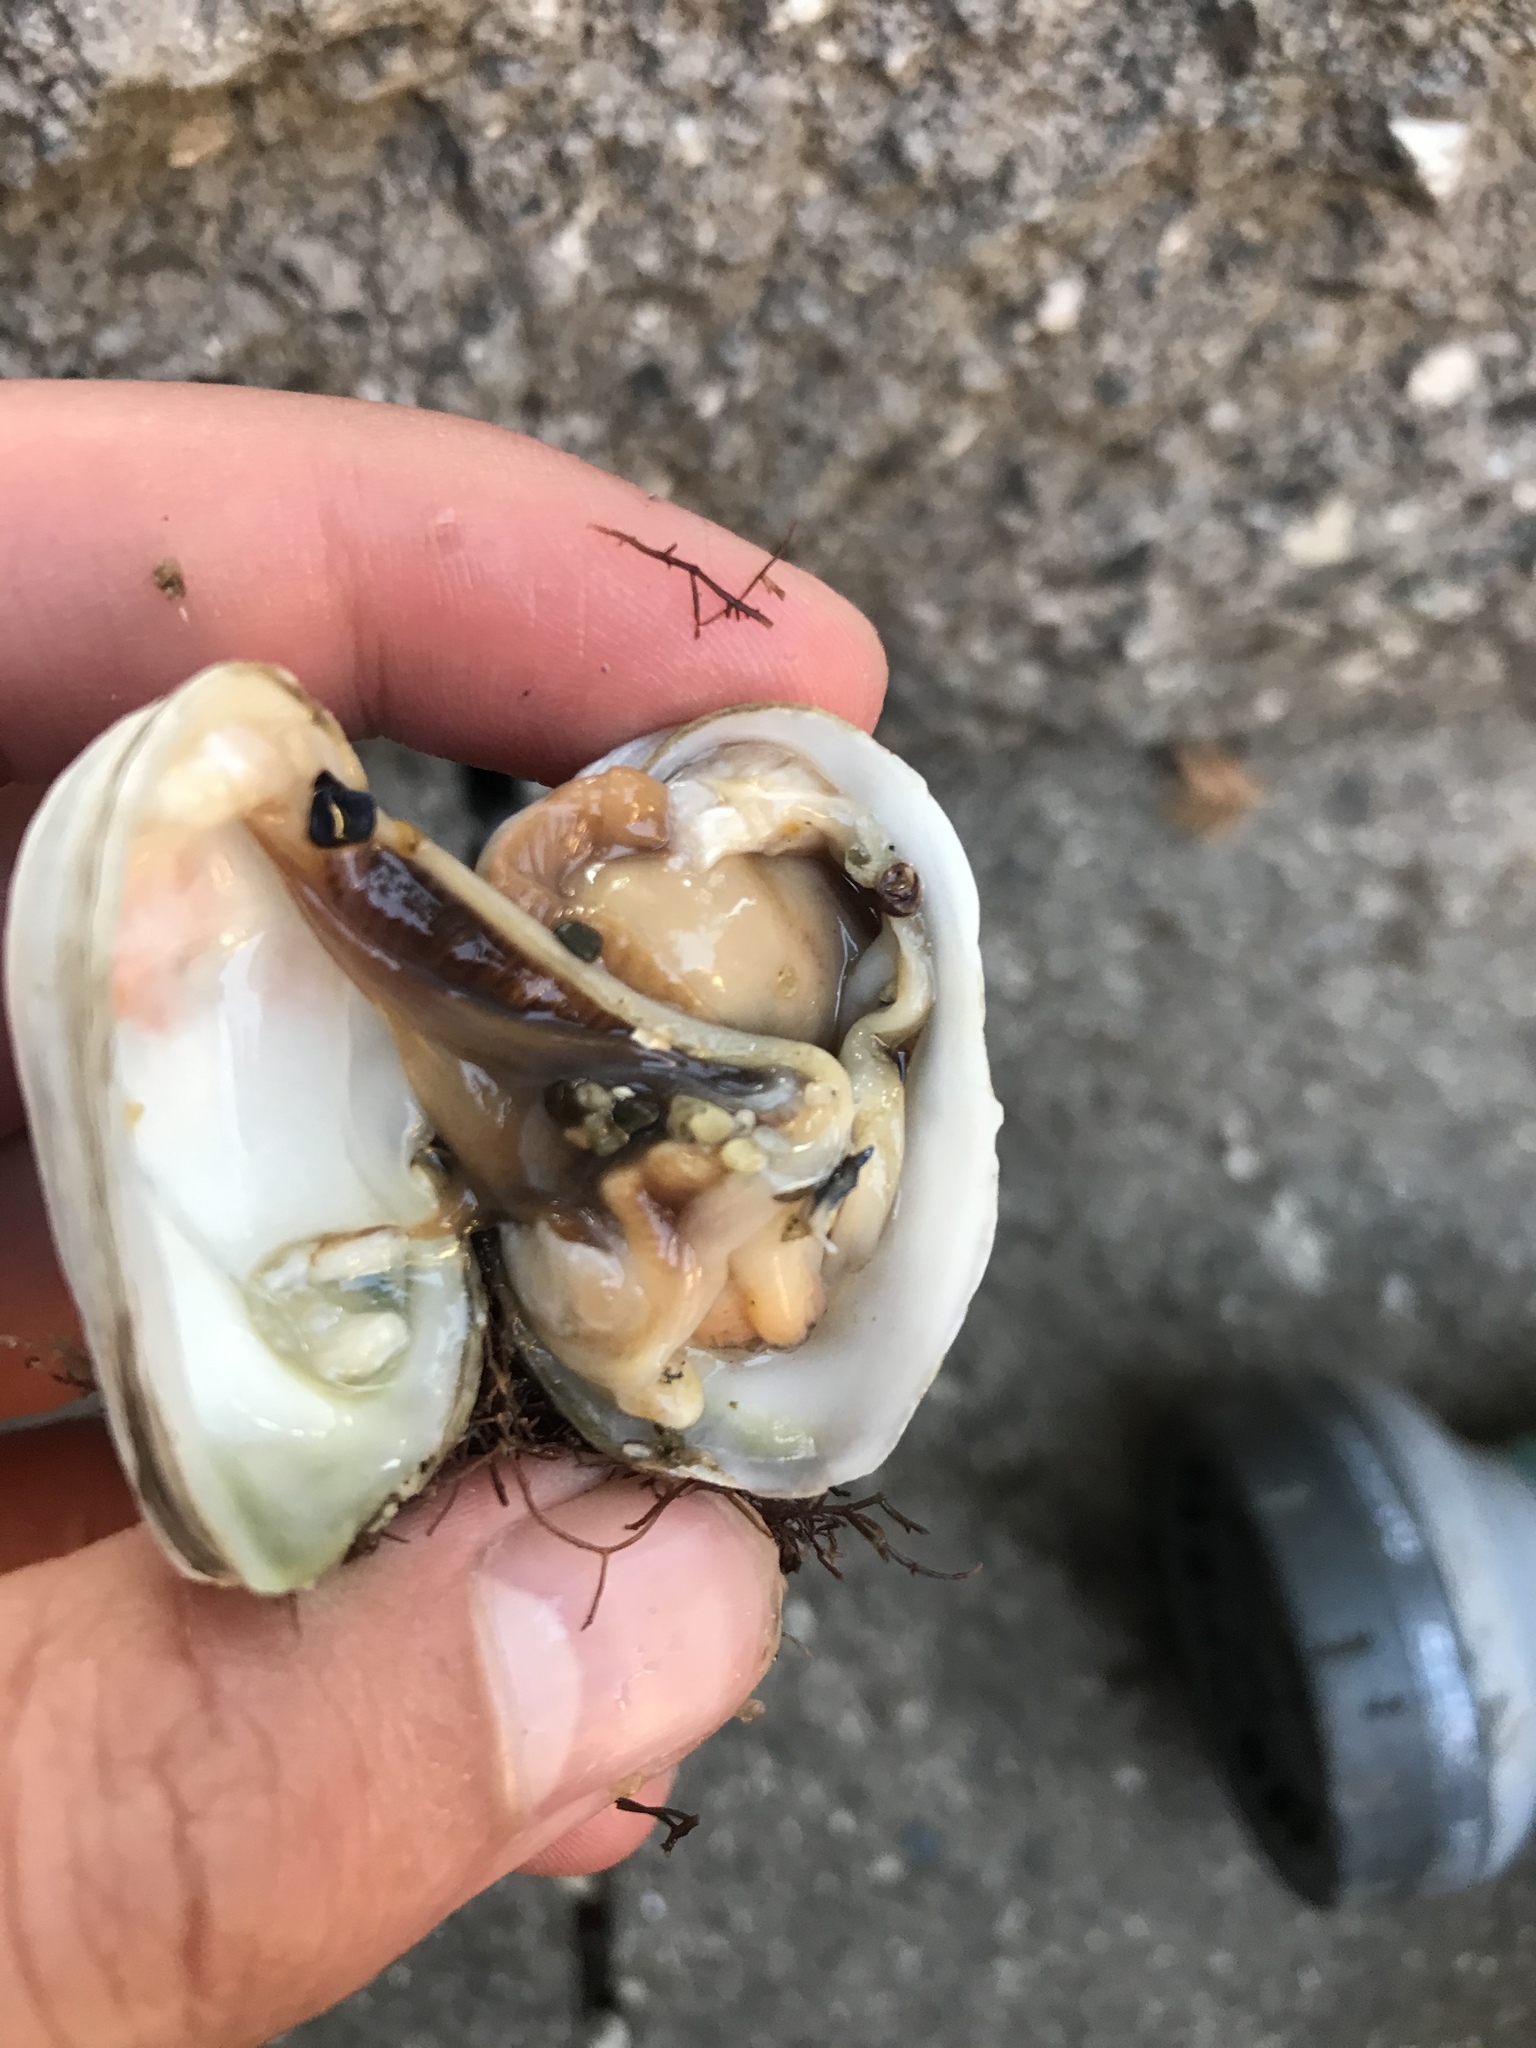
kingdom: Animalia
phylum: Mollusca
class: Bivalvia
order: Venerida
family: Veneridae
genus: Petricola
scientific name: Petricola carditoides
